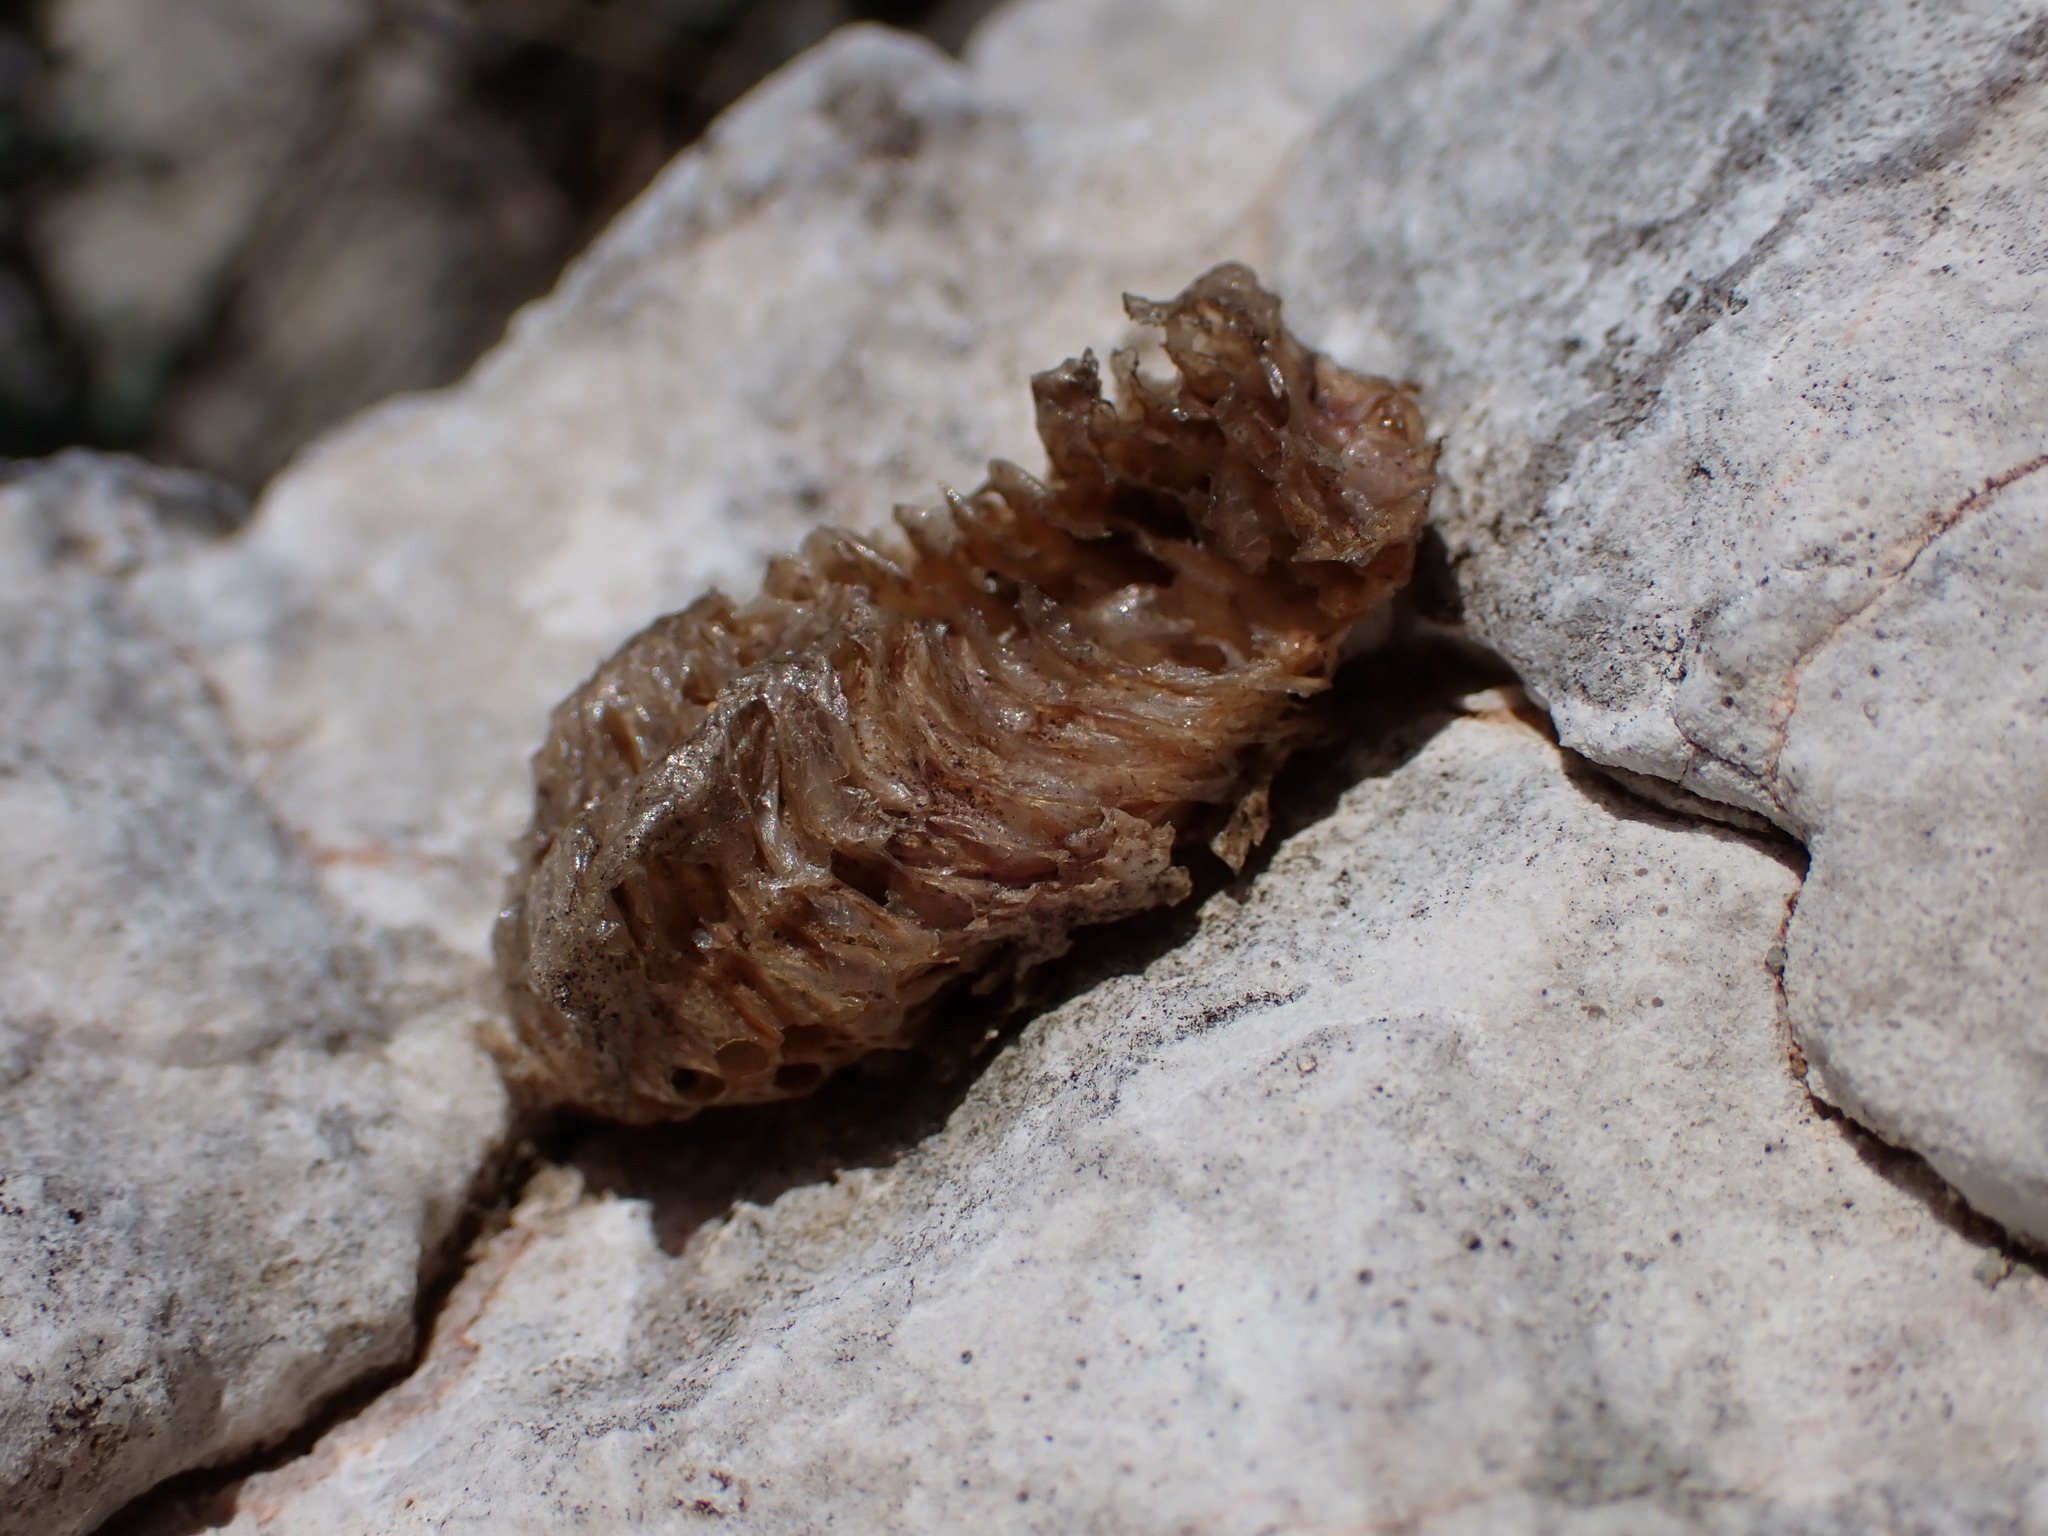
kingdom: Animalia
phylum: Arthropoda
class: Insecta
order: Mantodea
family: Mantidae
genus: Mantis
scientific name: Mantis religiosa
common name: Praying mantis
